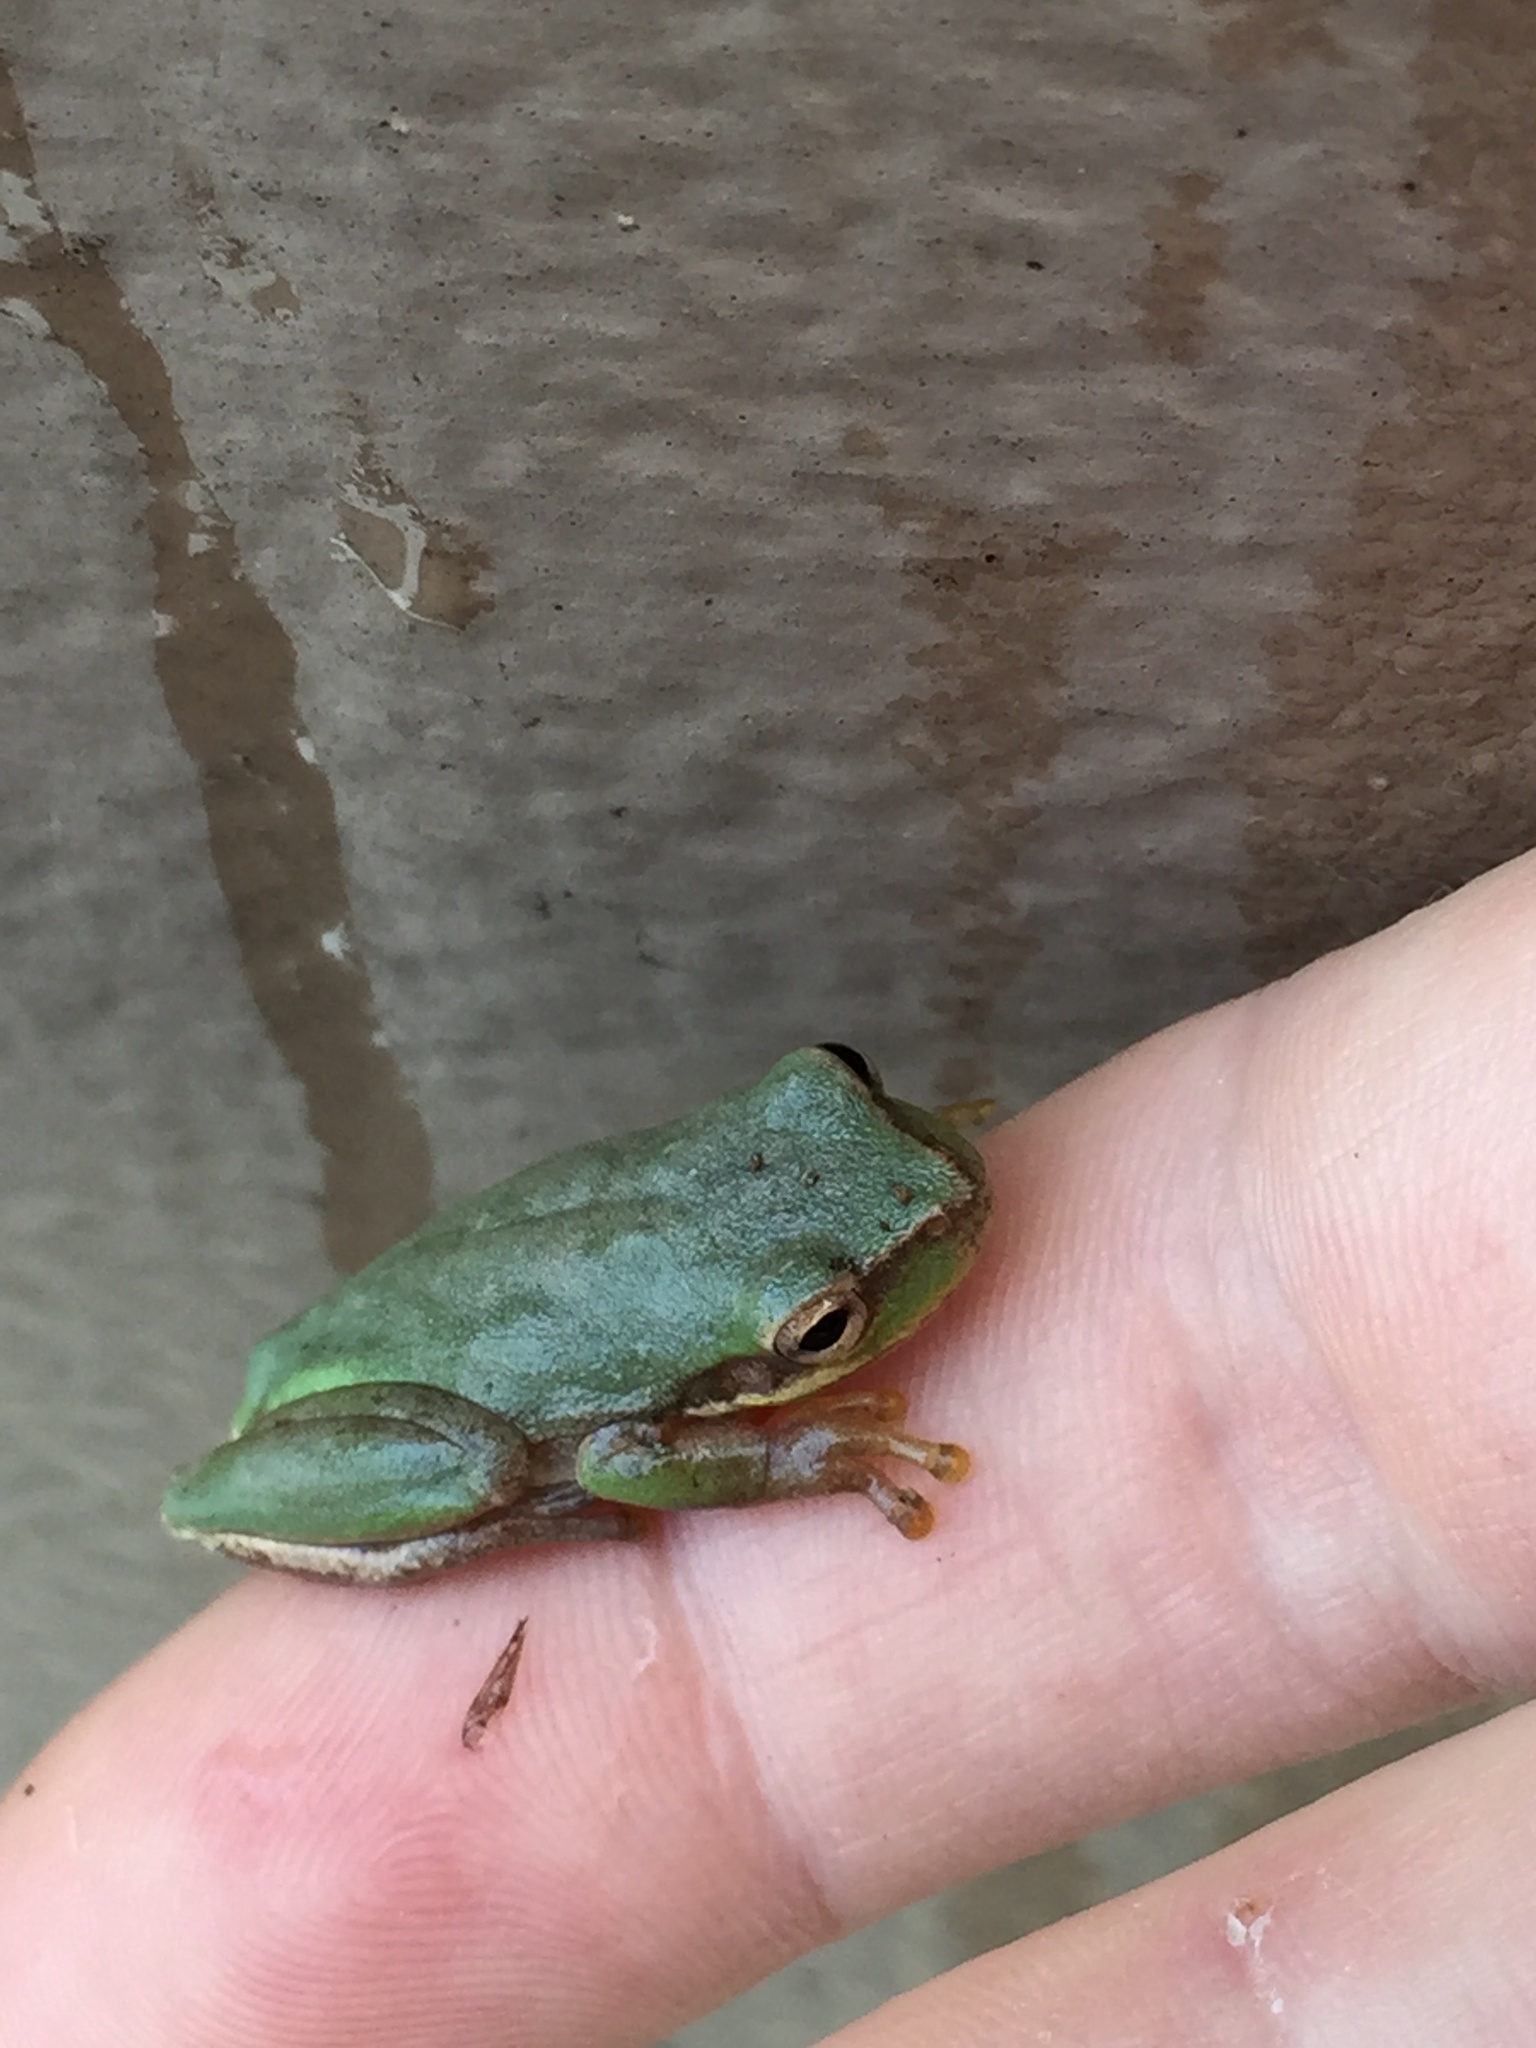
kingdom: Animalia
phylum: Chordata
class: Amphibia
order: Anura
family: Hylidae
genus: Dryophytes
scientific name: Dryophytes squirellus
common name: Squirrel treefrog
